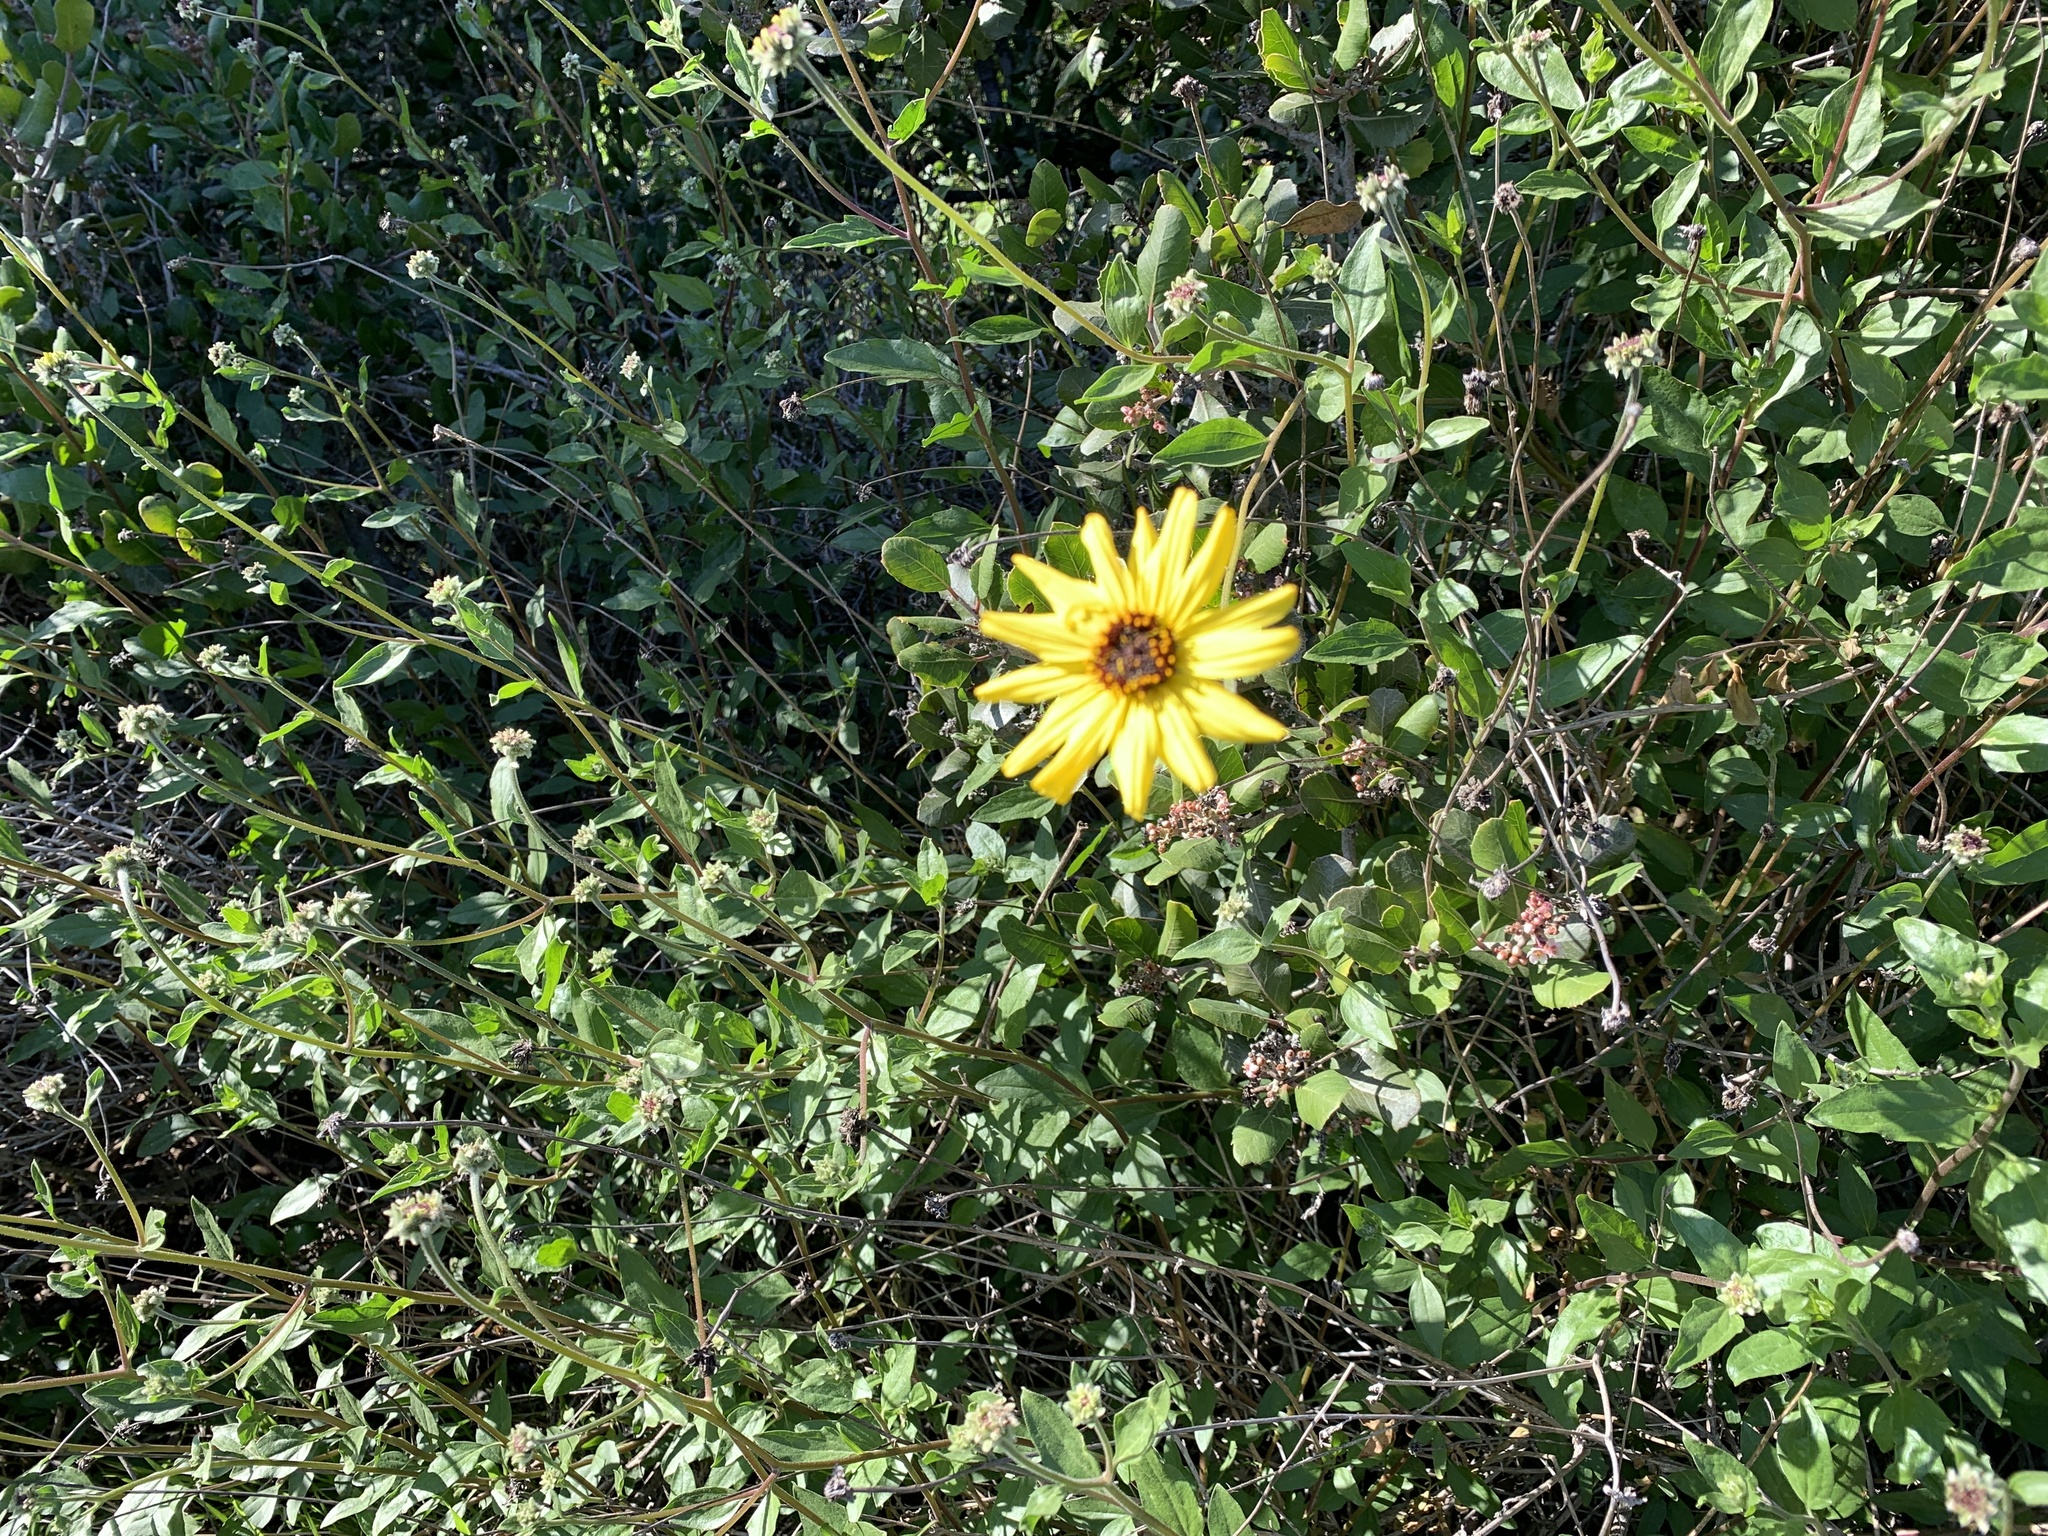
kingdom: Plantae
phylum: Tracheophyta
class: Magnoliopsida
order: Asterales
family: Asteraceae
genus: Encelia
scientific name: Encelia californica
